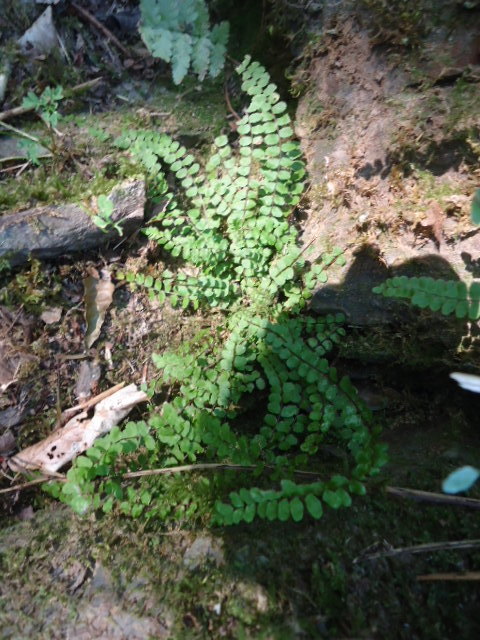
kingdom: Plantae
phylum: Tracheophyta
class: Polypodiopsida
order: Polypodiales
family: Aspleniaceae
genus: Asplenium
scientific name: Asplenium trichomanes
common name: Maidenhair spleenwort
